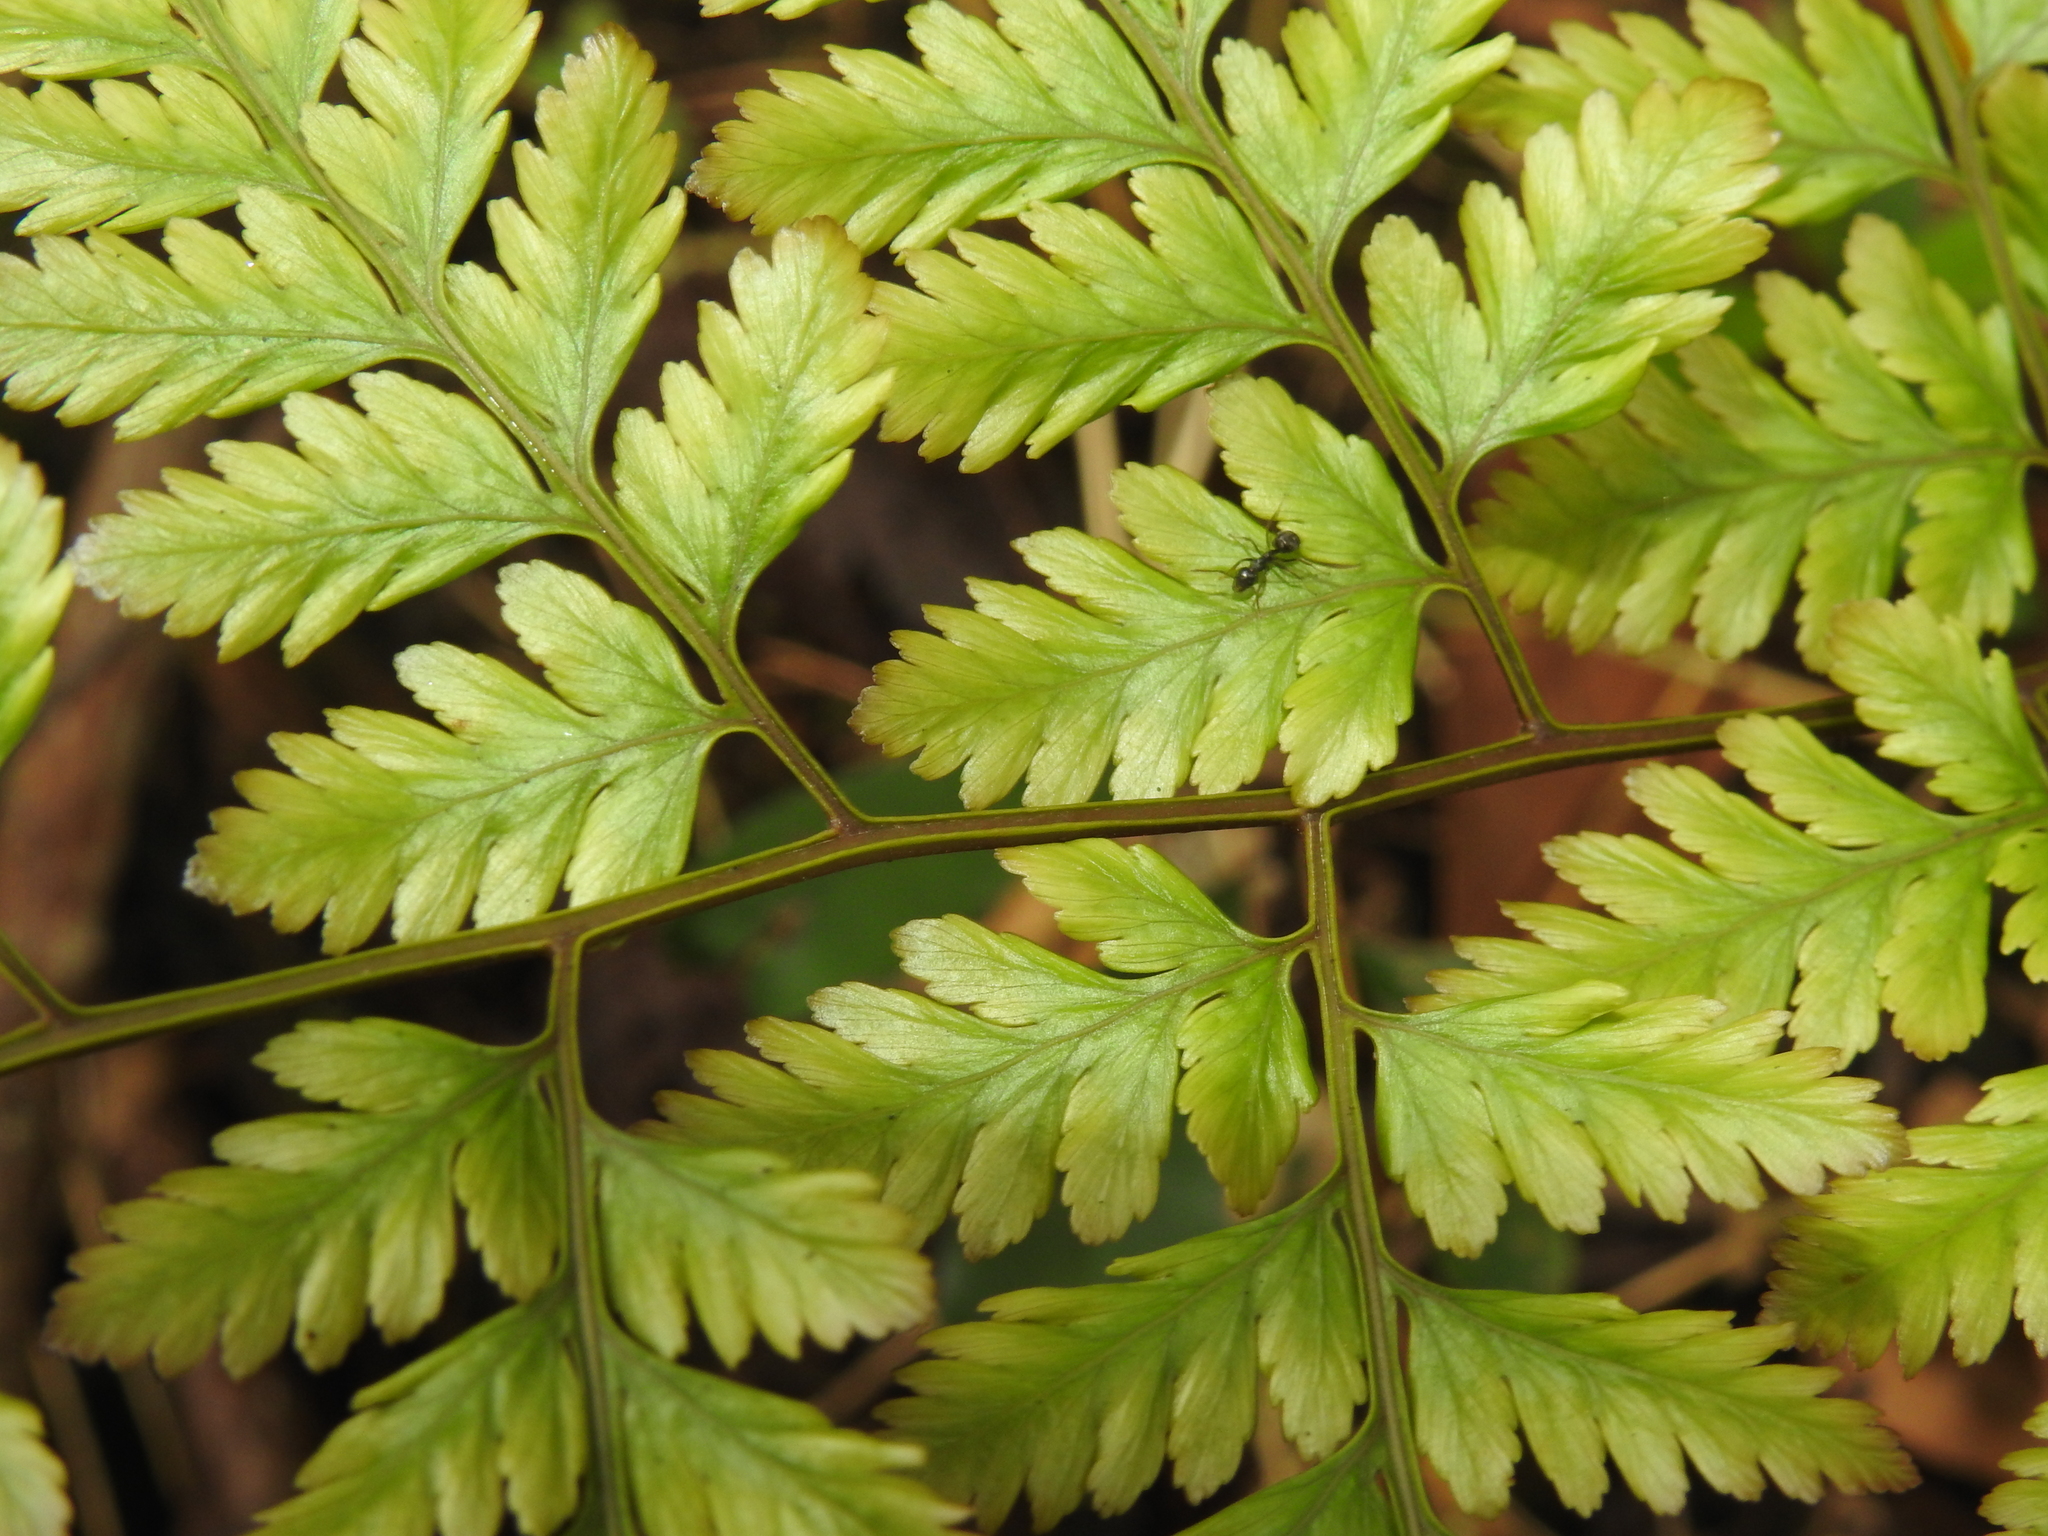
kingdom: Plantae
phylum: Tracheophyta
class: Polypodiopsida
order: Polypodiales
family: Davalliaceae
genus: Davallia
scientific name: Davallia divaricata
